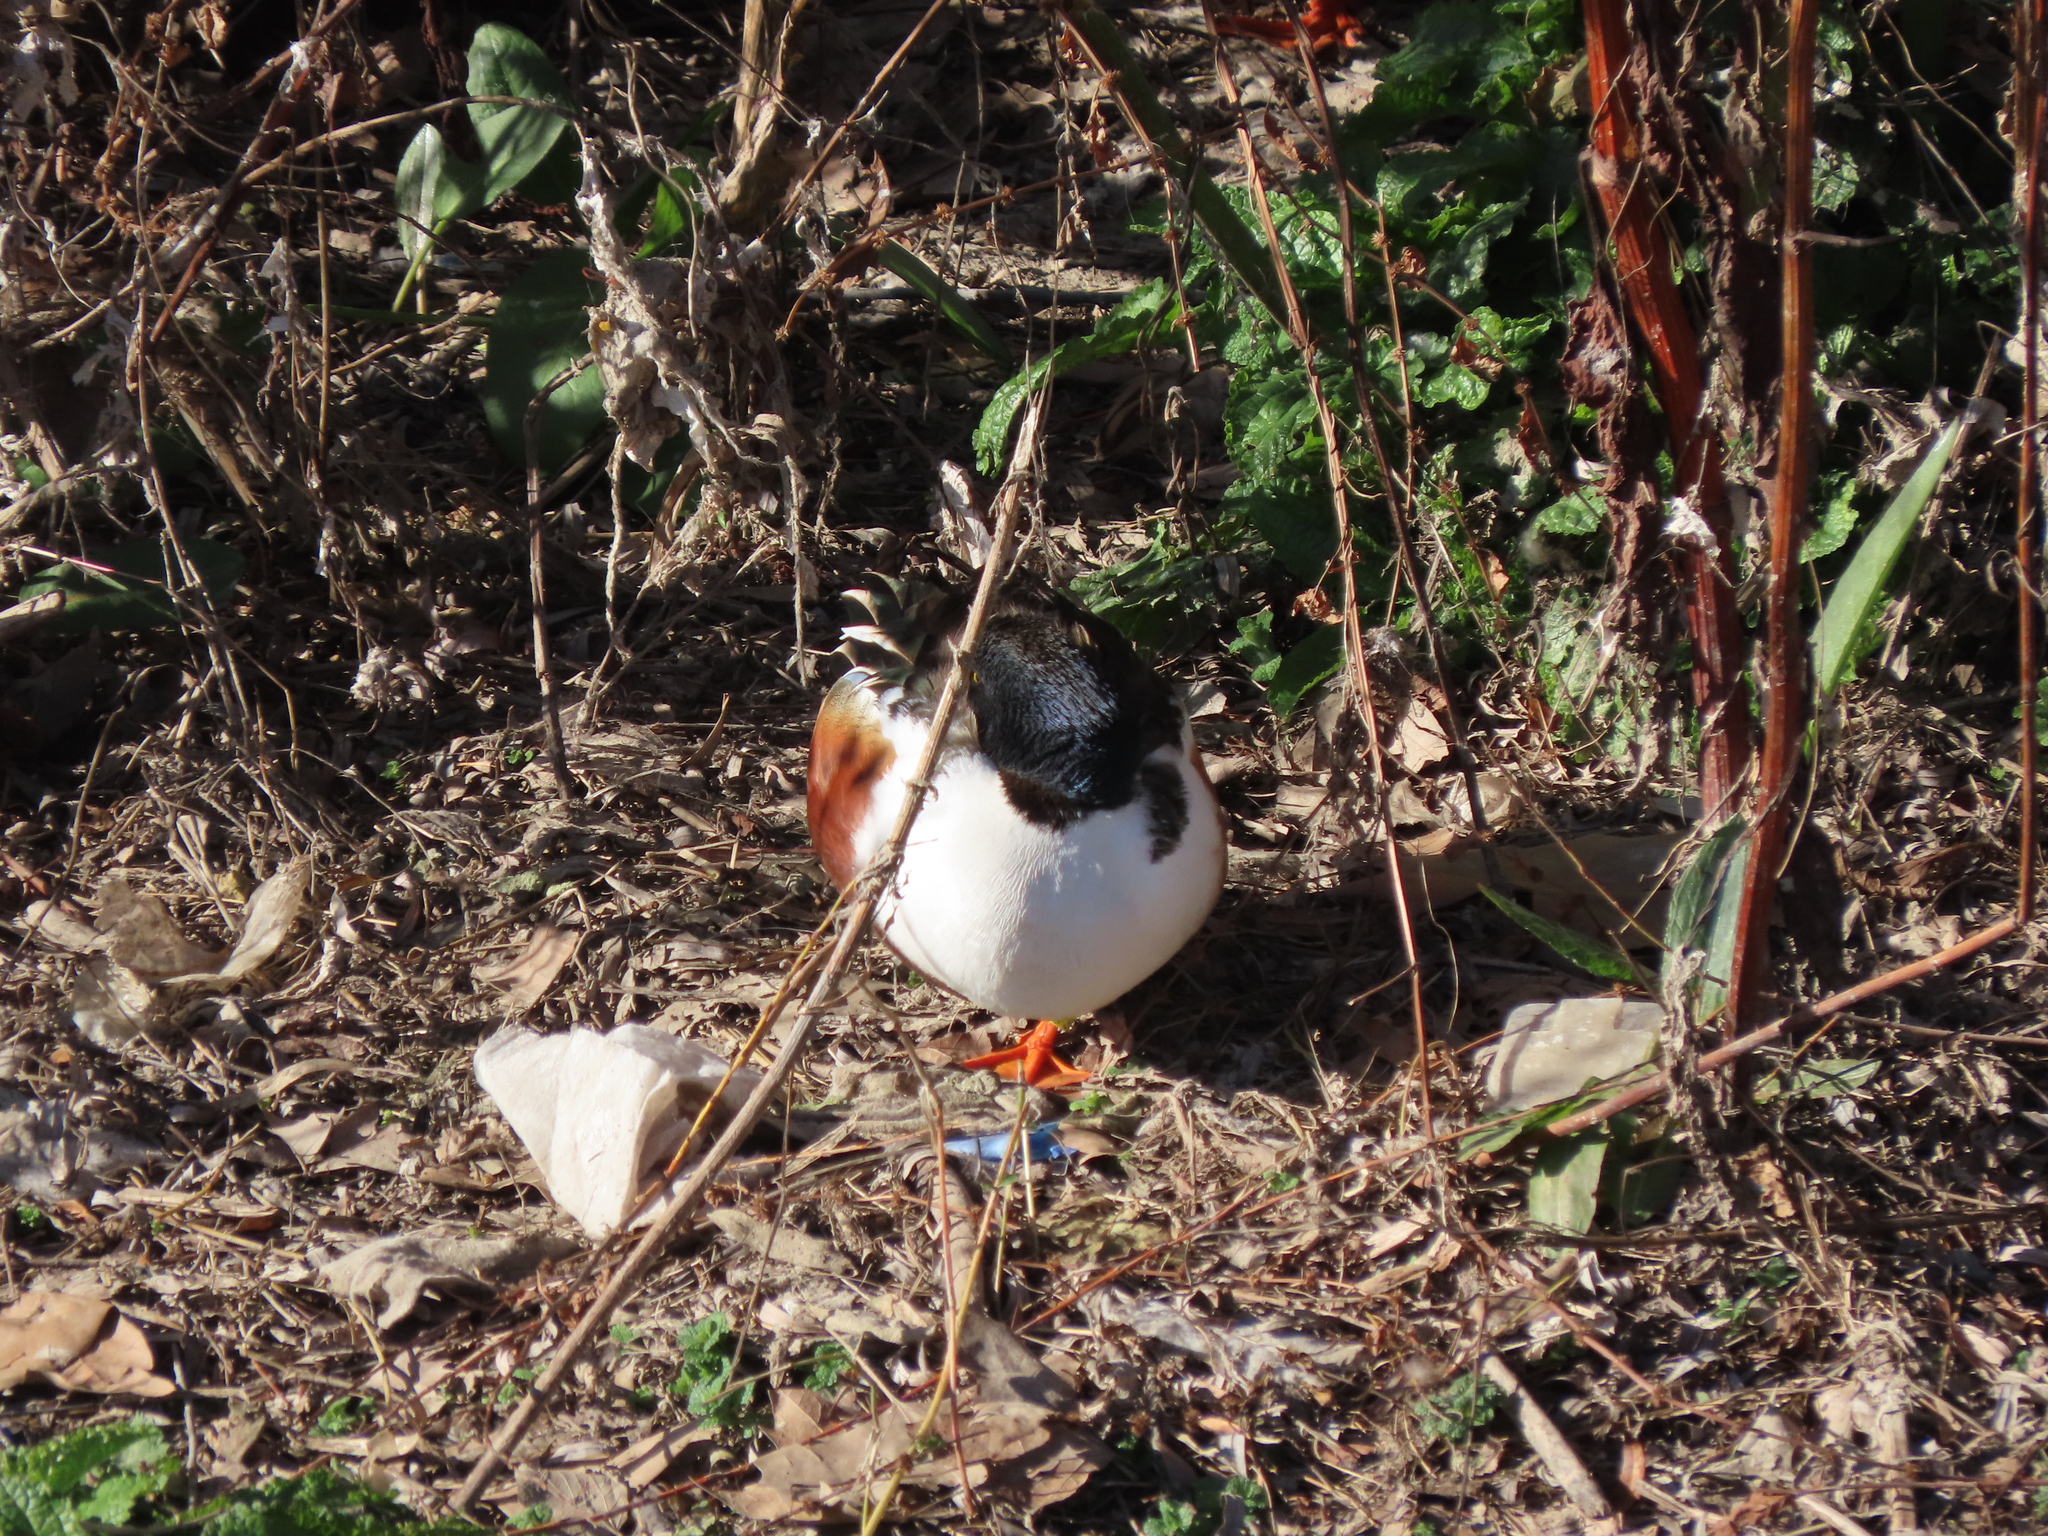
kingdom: Animalia
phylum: Chordata
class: Aves
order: Anseriformes
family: Anatidae
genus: Spatula
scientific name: Spatula clypeata
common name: Northern shoveler
